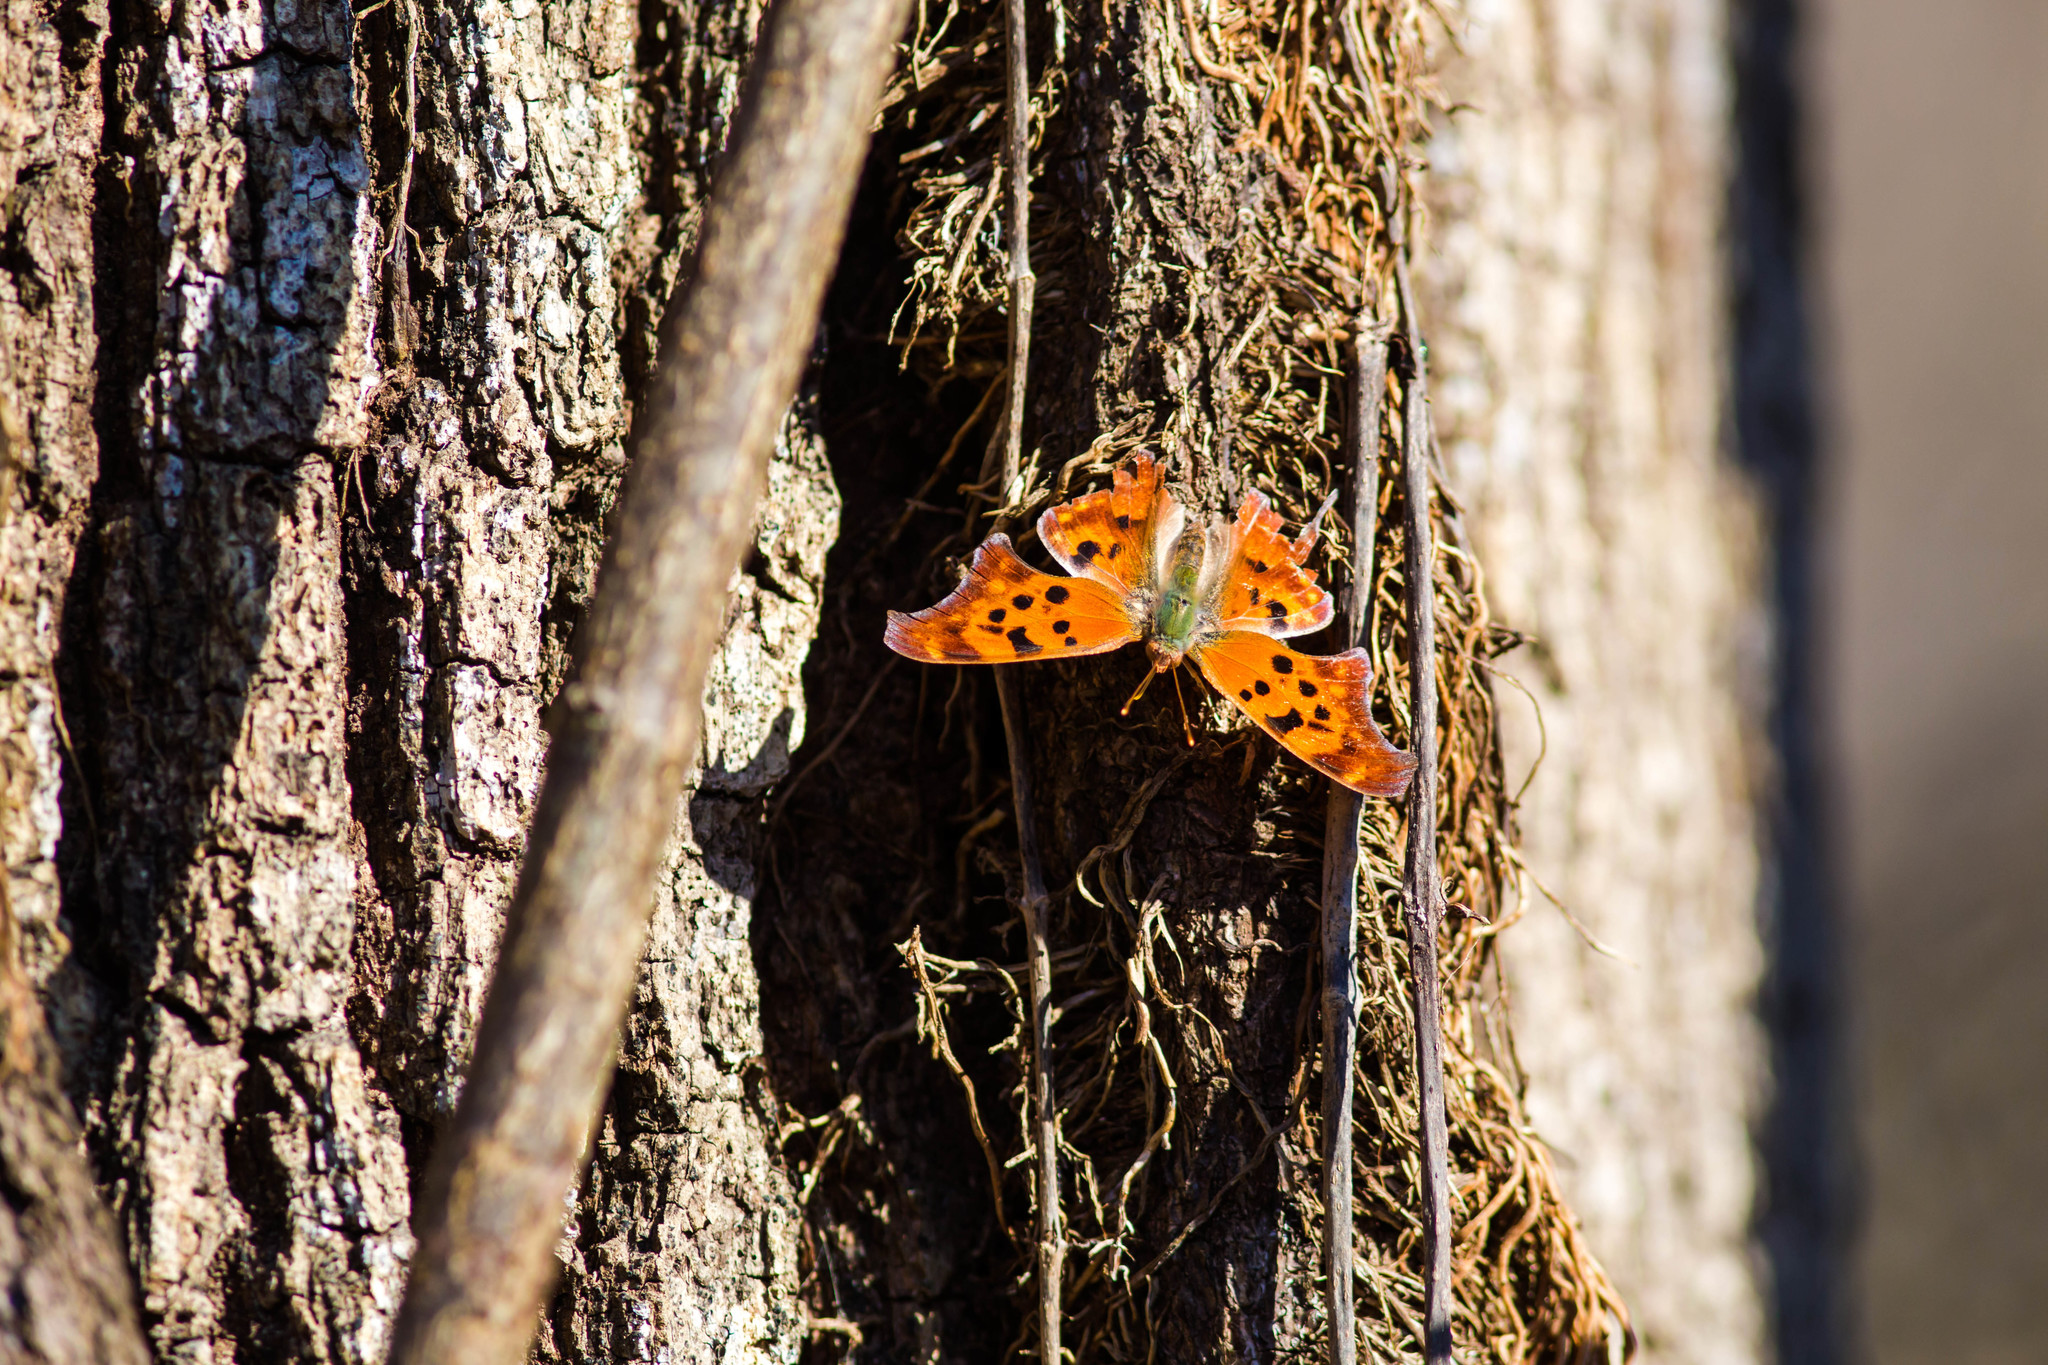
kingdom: Animalia
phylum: Arthropoda
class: Insecta
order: Lepidoptera
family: Nymphalidae
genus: Polygonia
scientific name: Polygonia interrogationis
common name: Question mark
